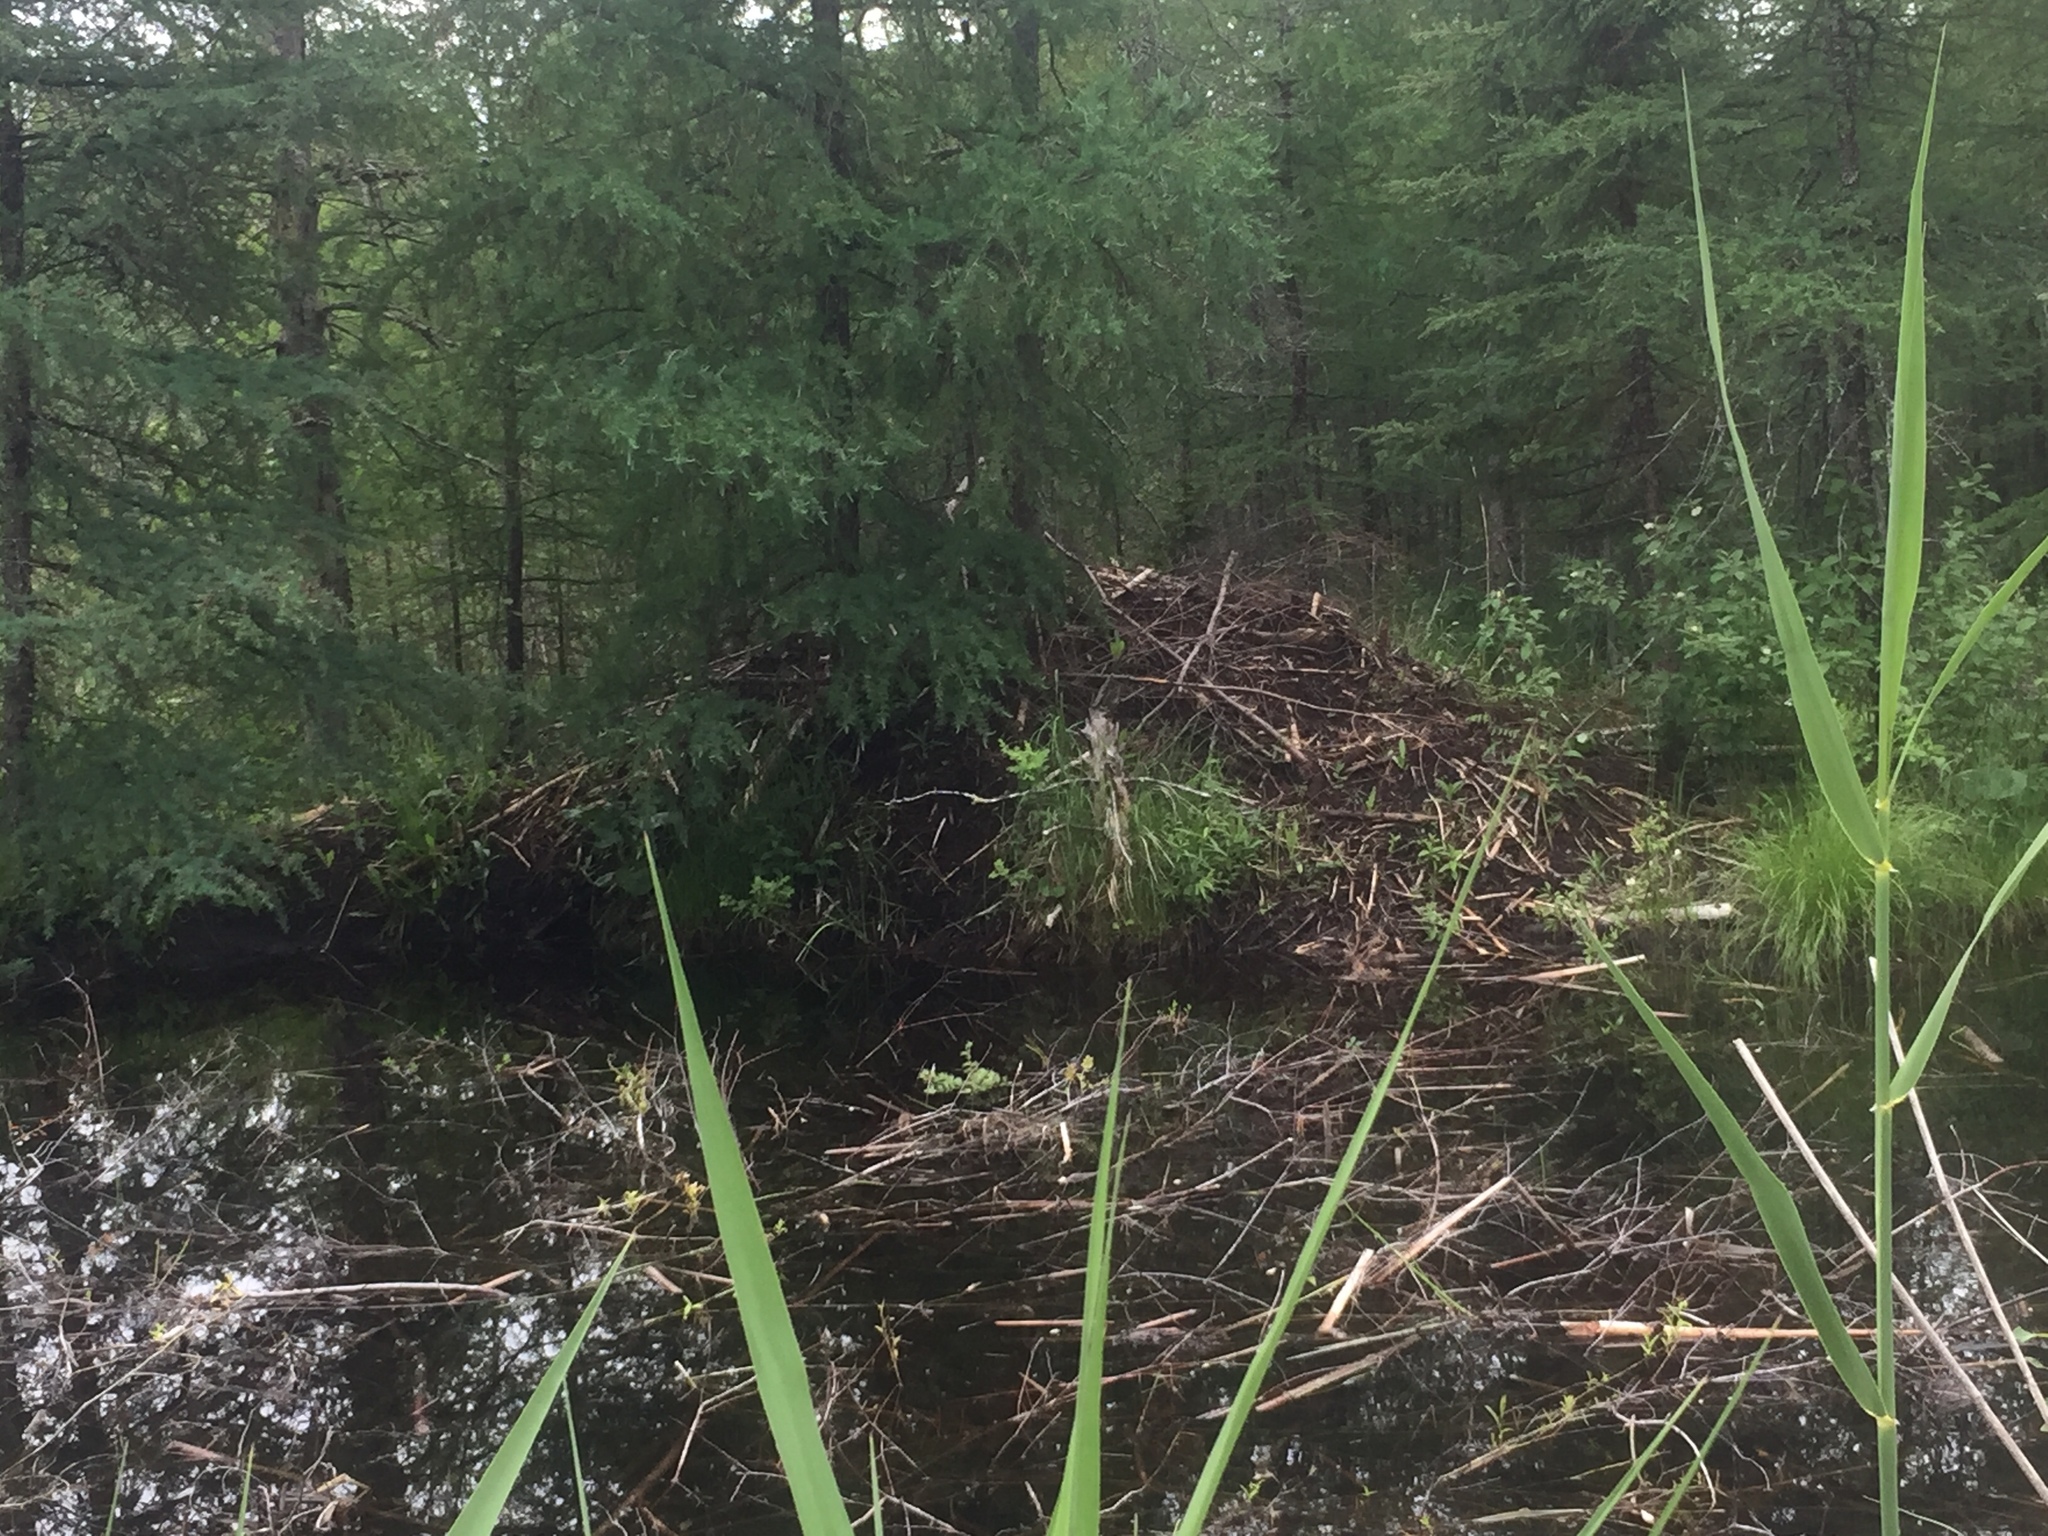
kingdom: Animalia
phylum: Chordata
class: Mammalia
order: Rodentia
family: Castoridae
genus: Castor
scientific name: Castor canadensis
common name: American beaver
